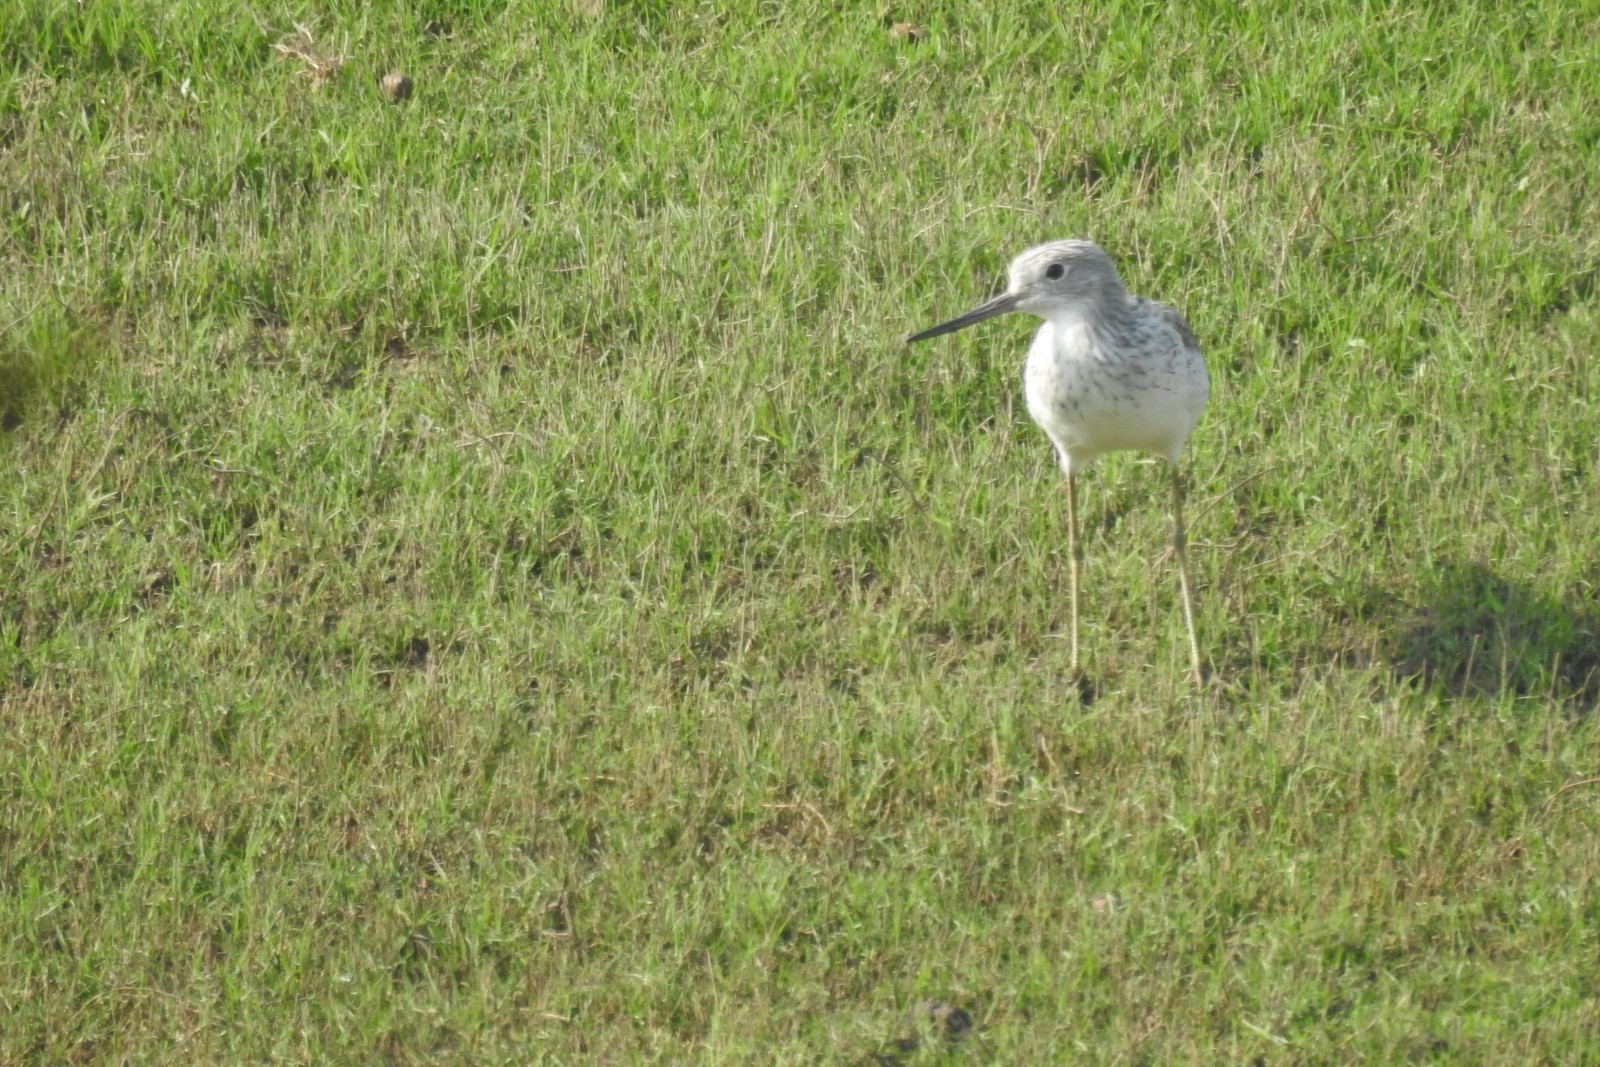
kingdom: Animalia
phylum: Chordata
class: Aves
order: Charadriiformes
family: Scolopacidae
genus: Tringa
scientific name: Tringa nebularia
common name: Common greenshank
